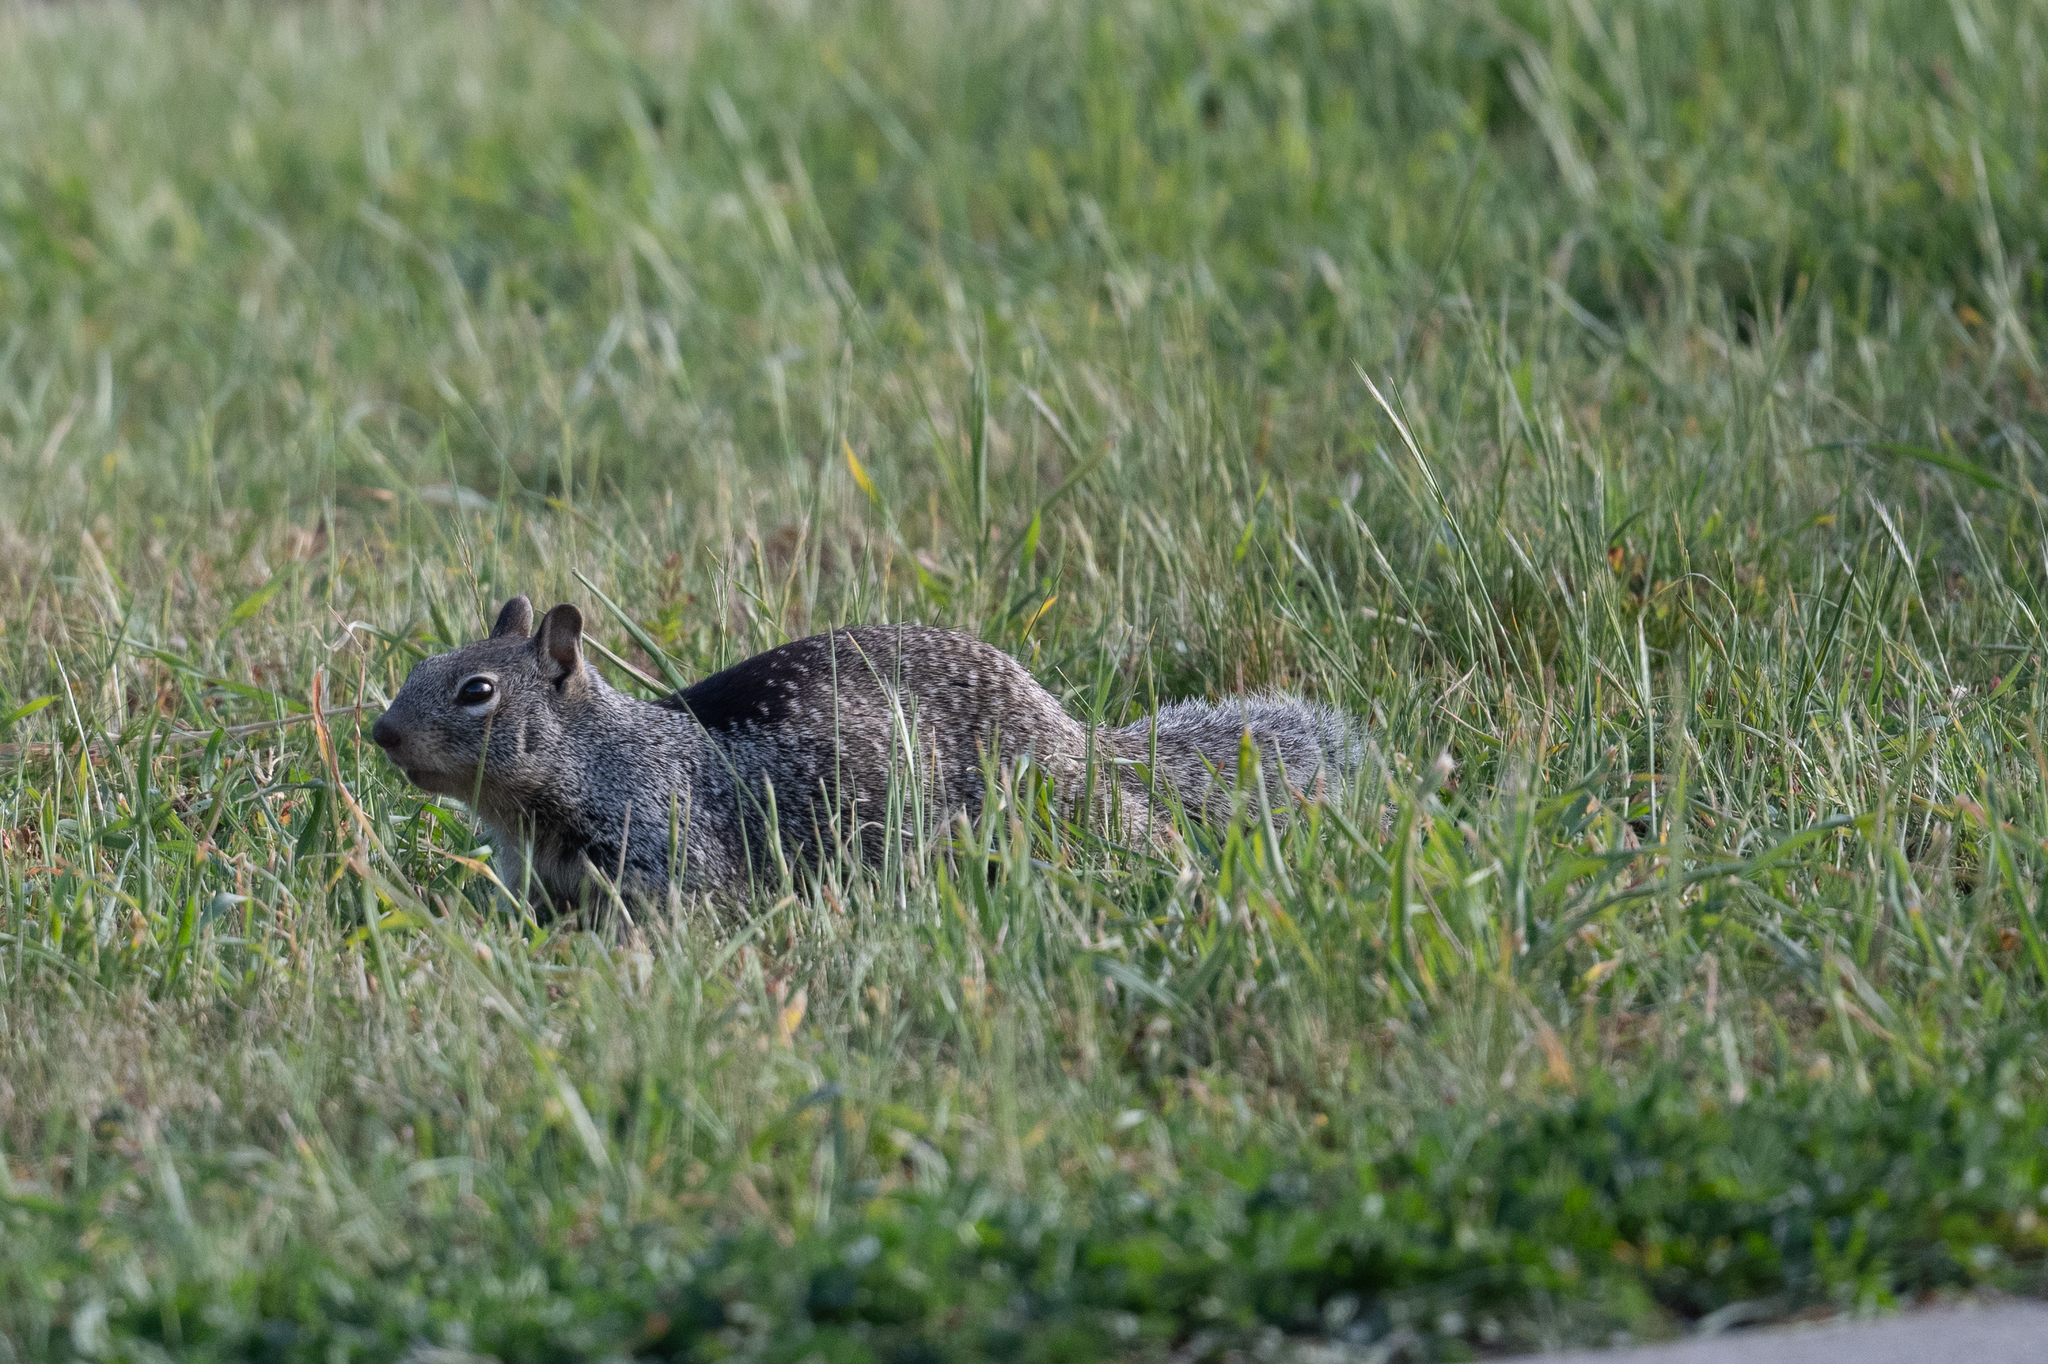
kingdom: Animalia
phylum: Chordata
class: Mammalia
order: Rodentia
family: Sciuridae
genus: Otospermophilus
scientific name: Otospermophilus beecheyi
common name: California ground squirrel
